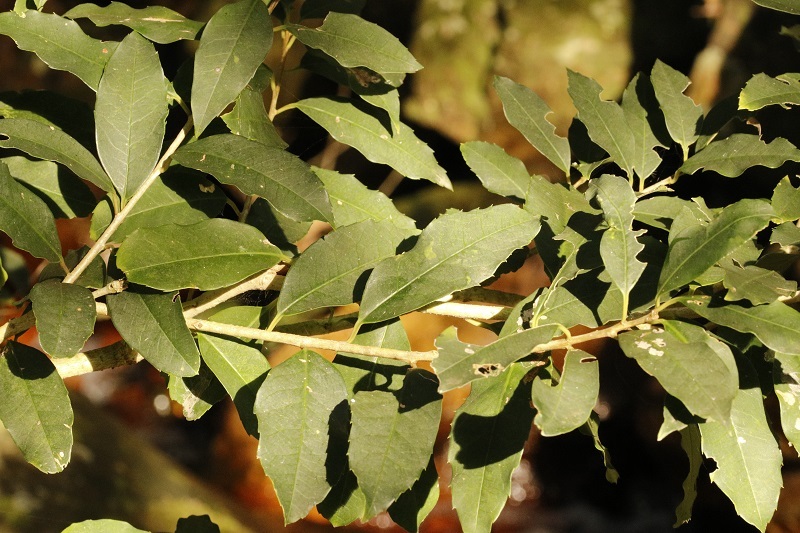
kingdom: Plantae
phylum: Tracheophyta
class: Magnoliopsida
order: Aquifoliales
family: Aquifoliaceae
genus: Ilex
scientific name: Ilex mitis
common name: African holly
